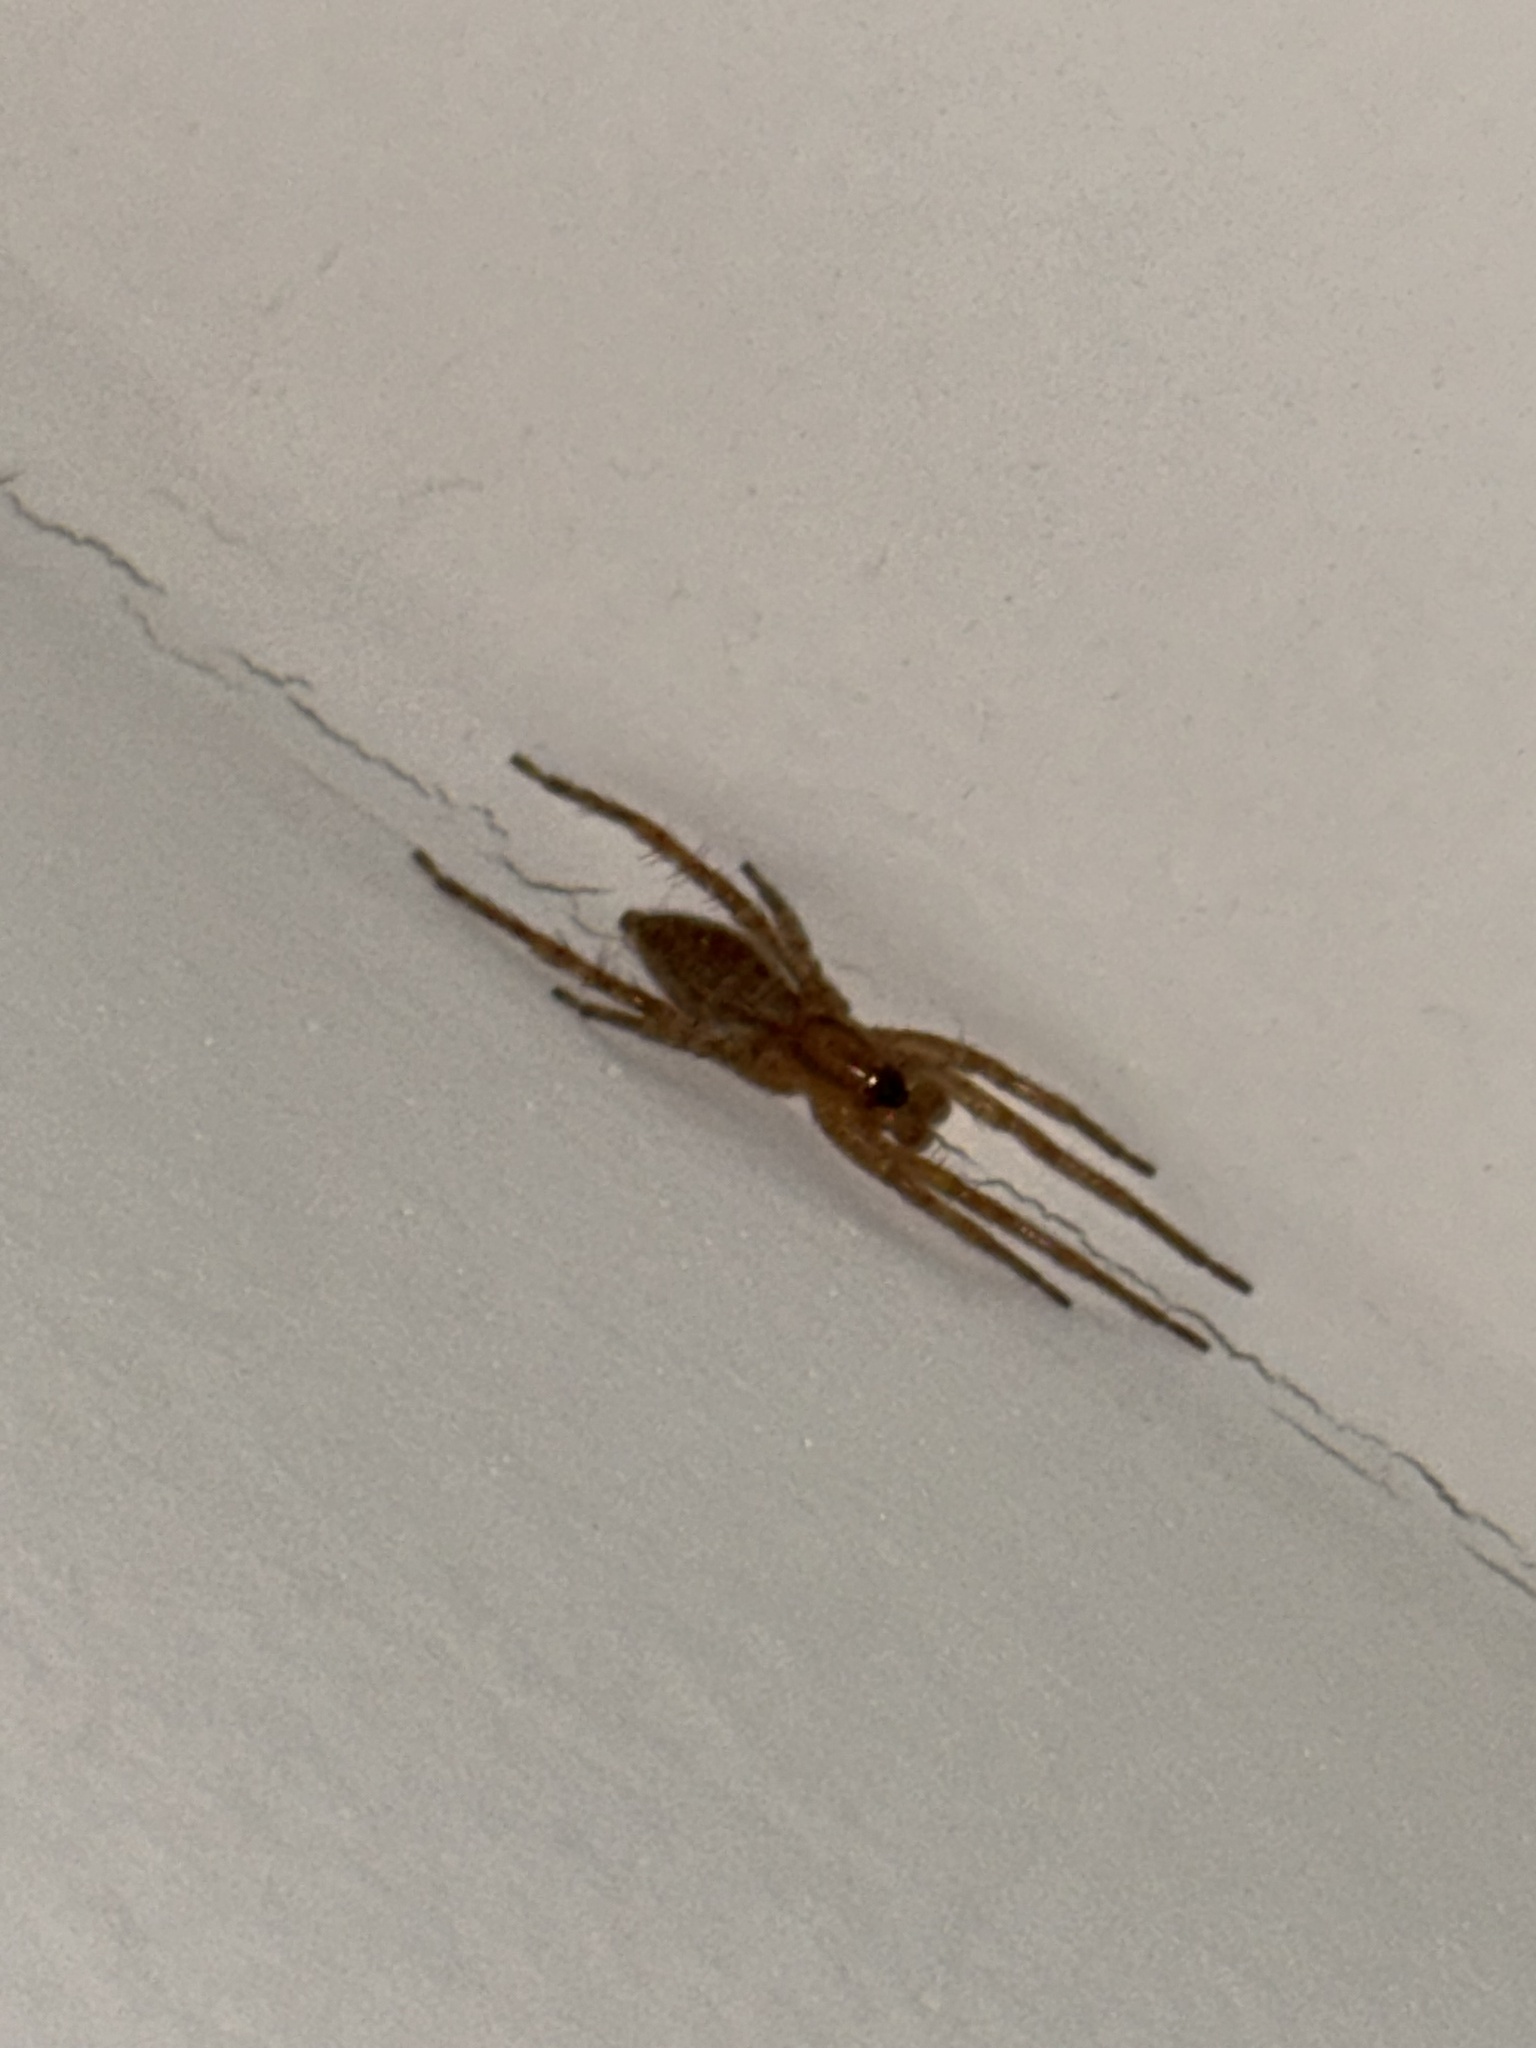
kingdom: Animalia
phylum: Arthropoda
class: Arachnida
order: Araneae
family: Anyphaenidae
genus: Hibana
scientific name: Hibana gracilis
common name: Garden ghost spider
